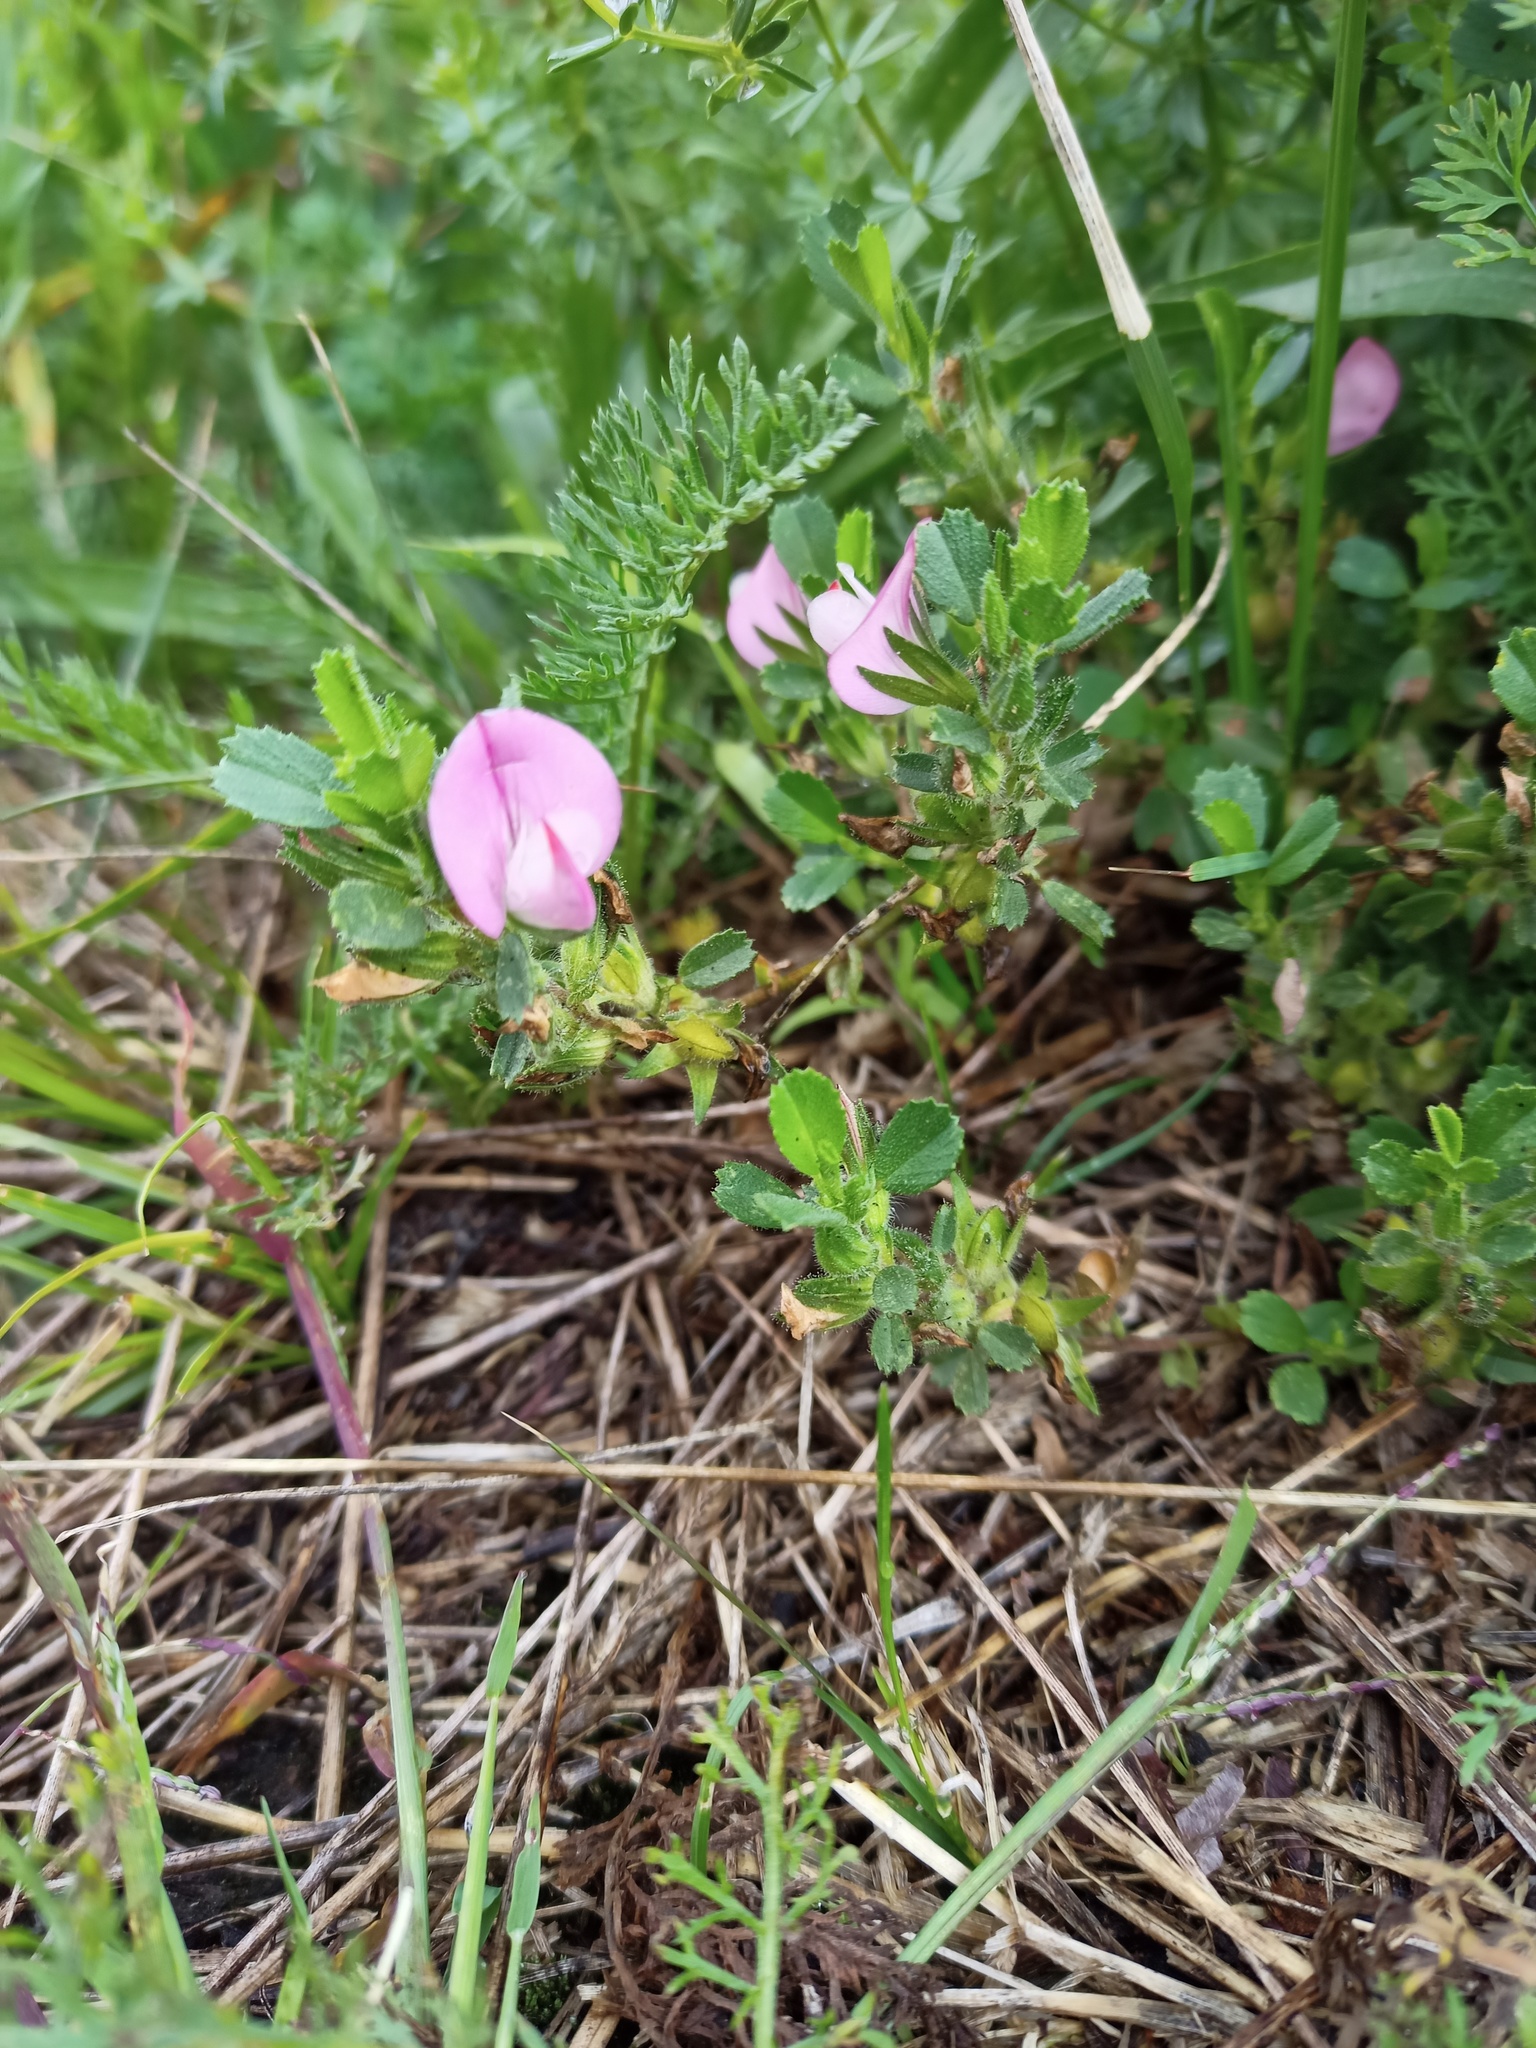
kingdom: Plantae
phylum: Tracheophyta
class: Magnoliopsida
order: Fabales
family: Fabaceae
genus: Ononis
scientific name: Ononis spinosa
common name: Spiny restharrow
